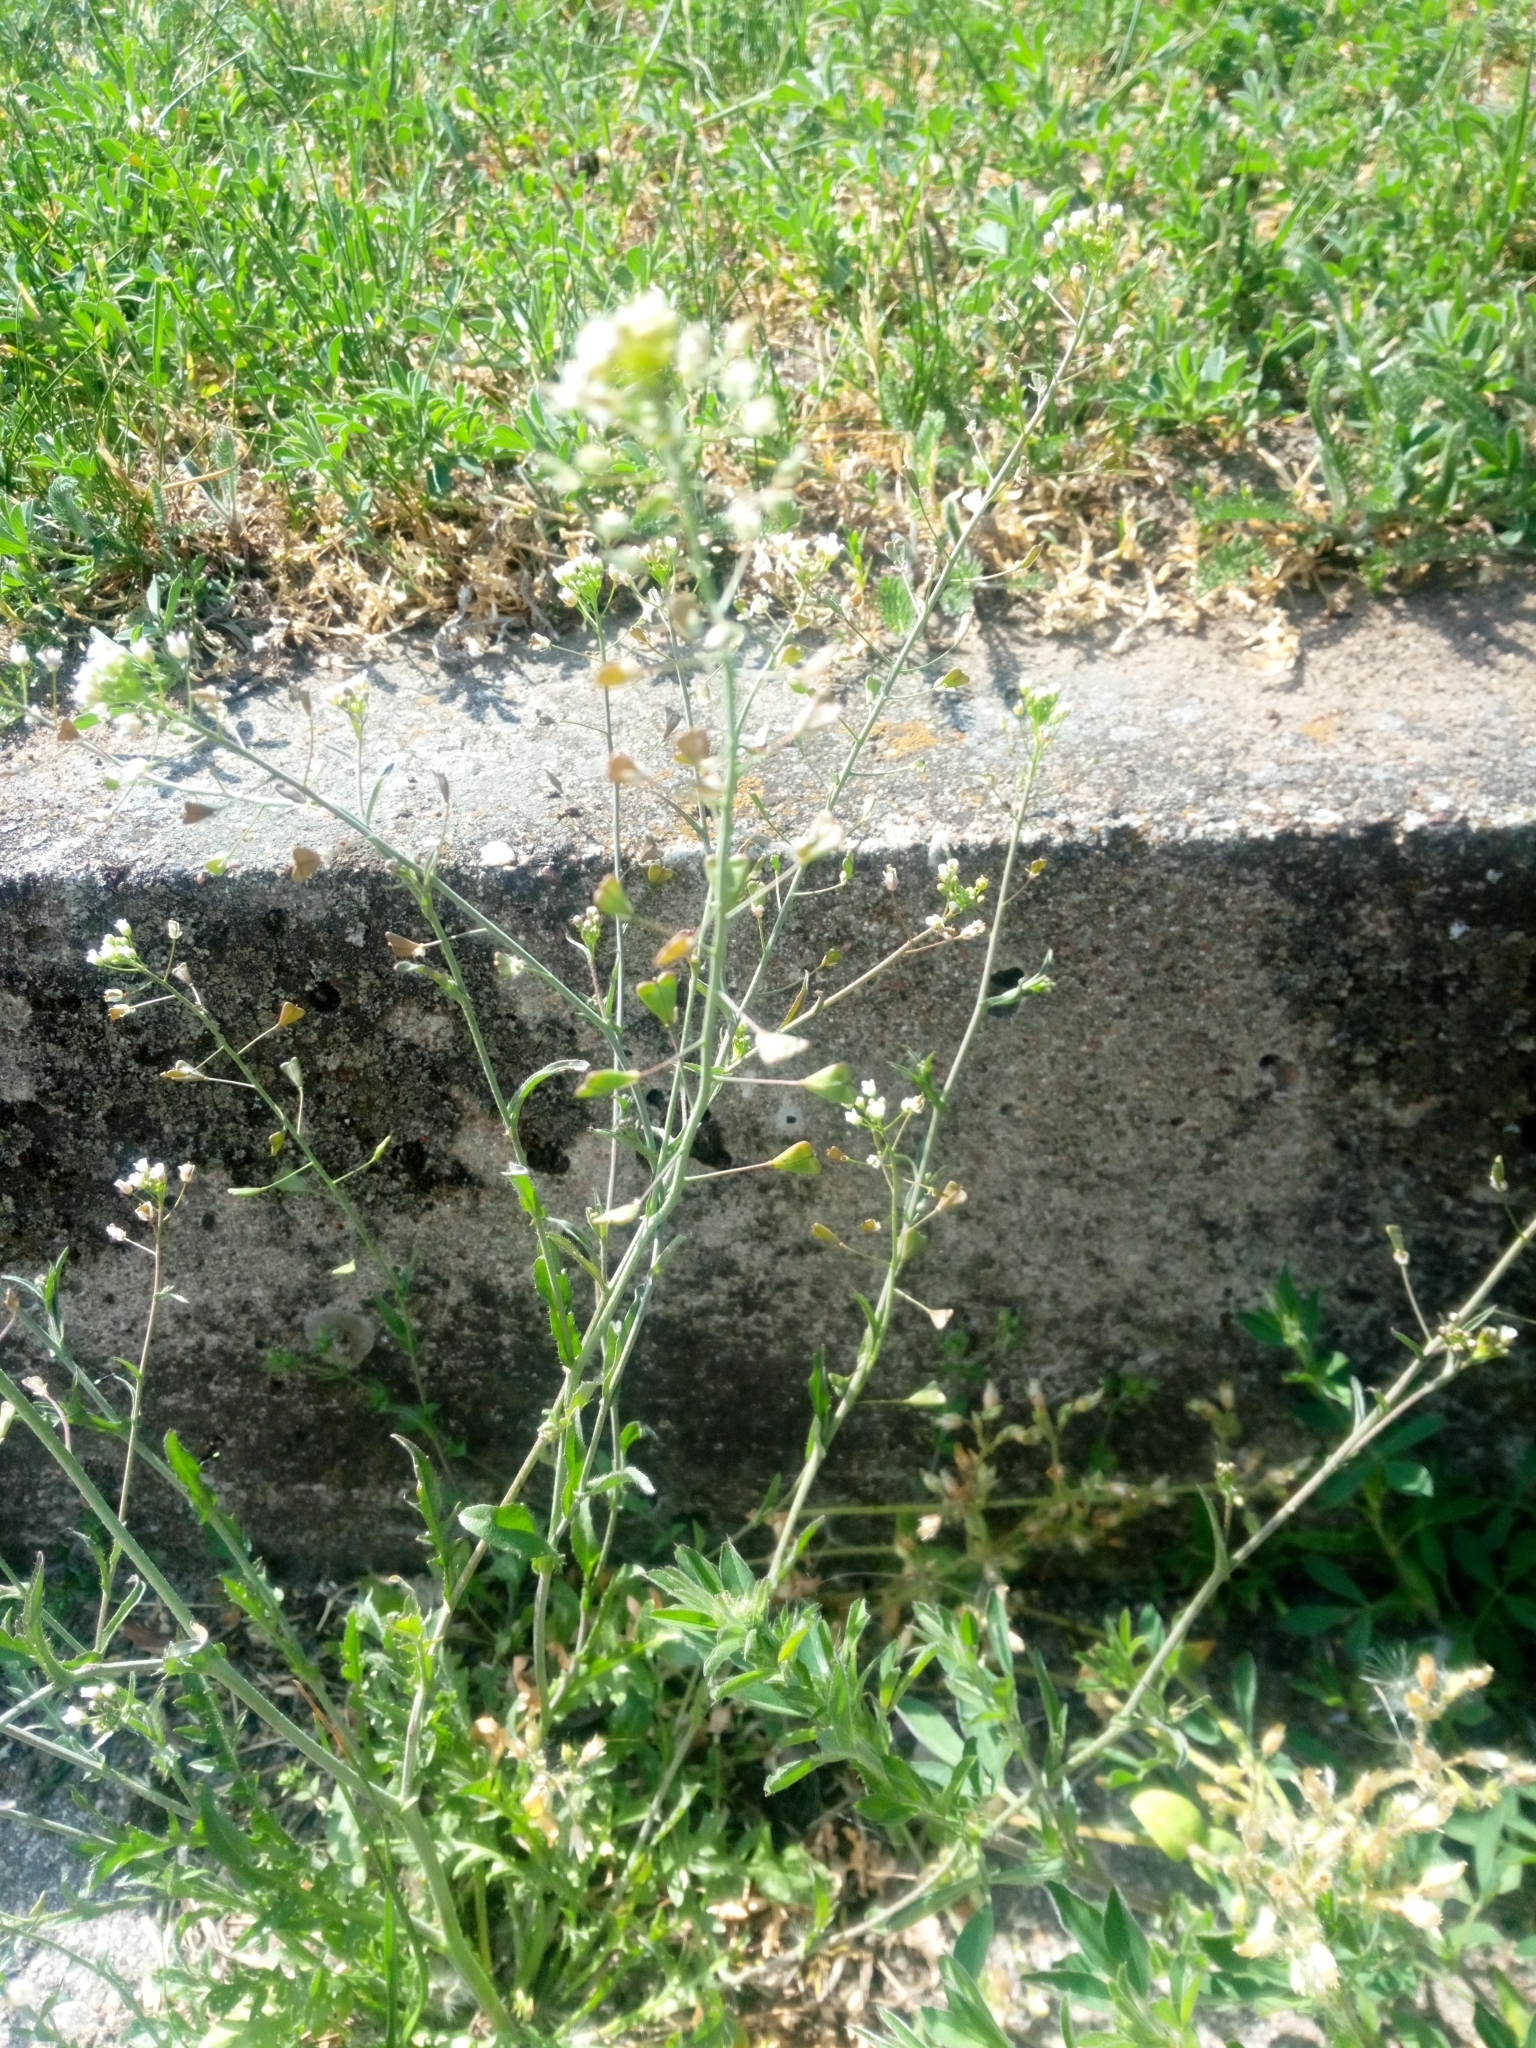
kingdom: Plantae
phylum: Tracheophyta
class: Magnoliopsida
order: Brassicales
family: Brassicaceae
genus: Capsella
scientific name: Capsella bursa-pastoris
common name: Shepherd's purse
